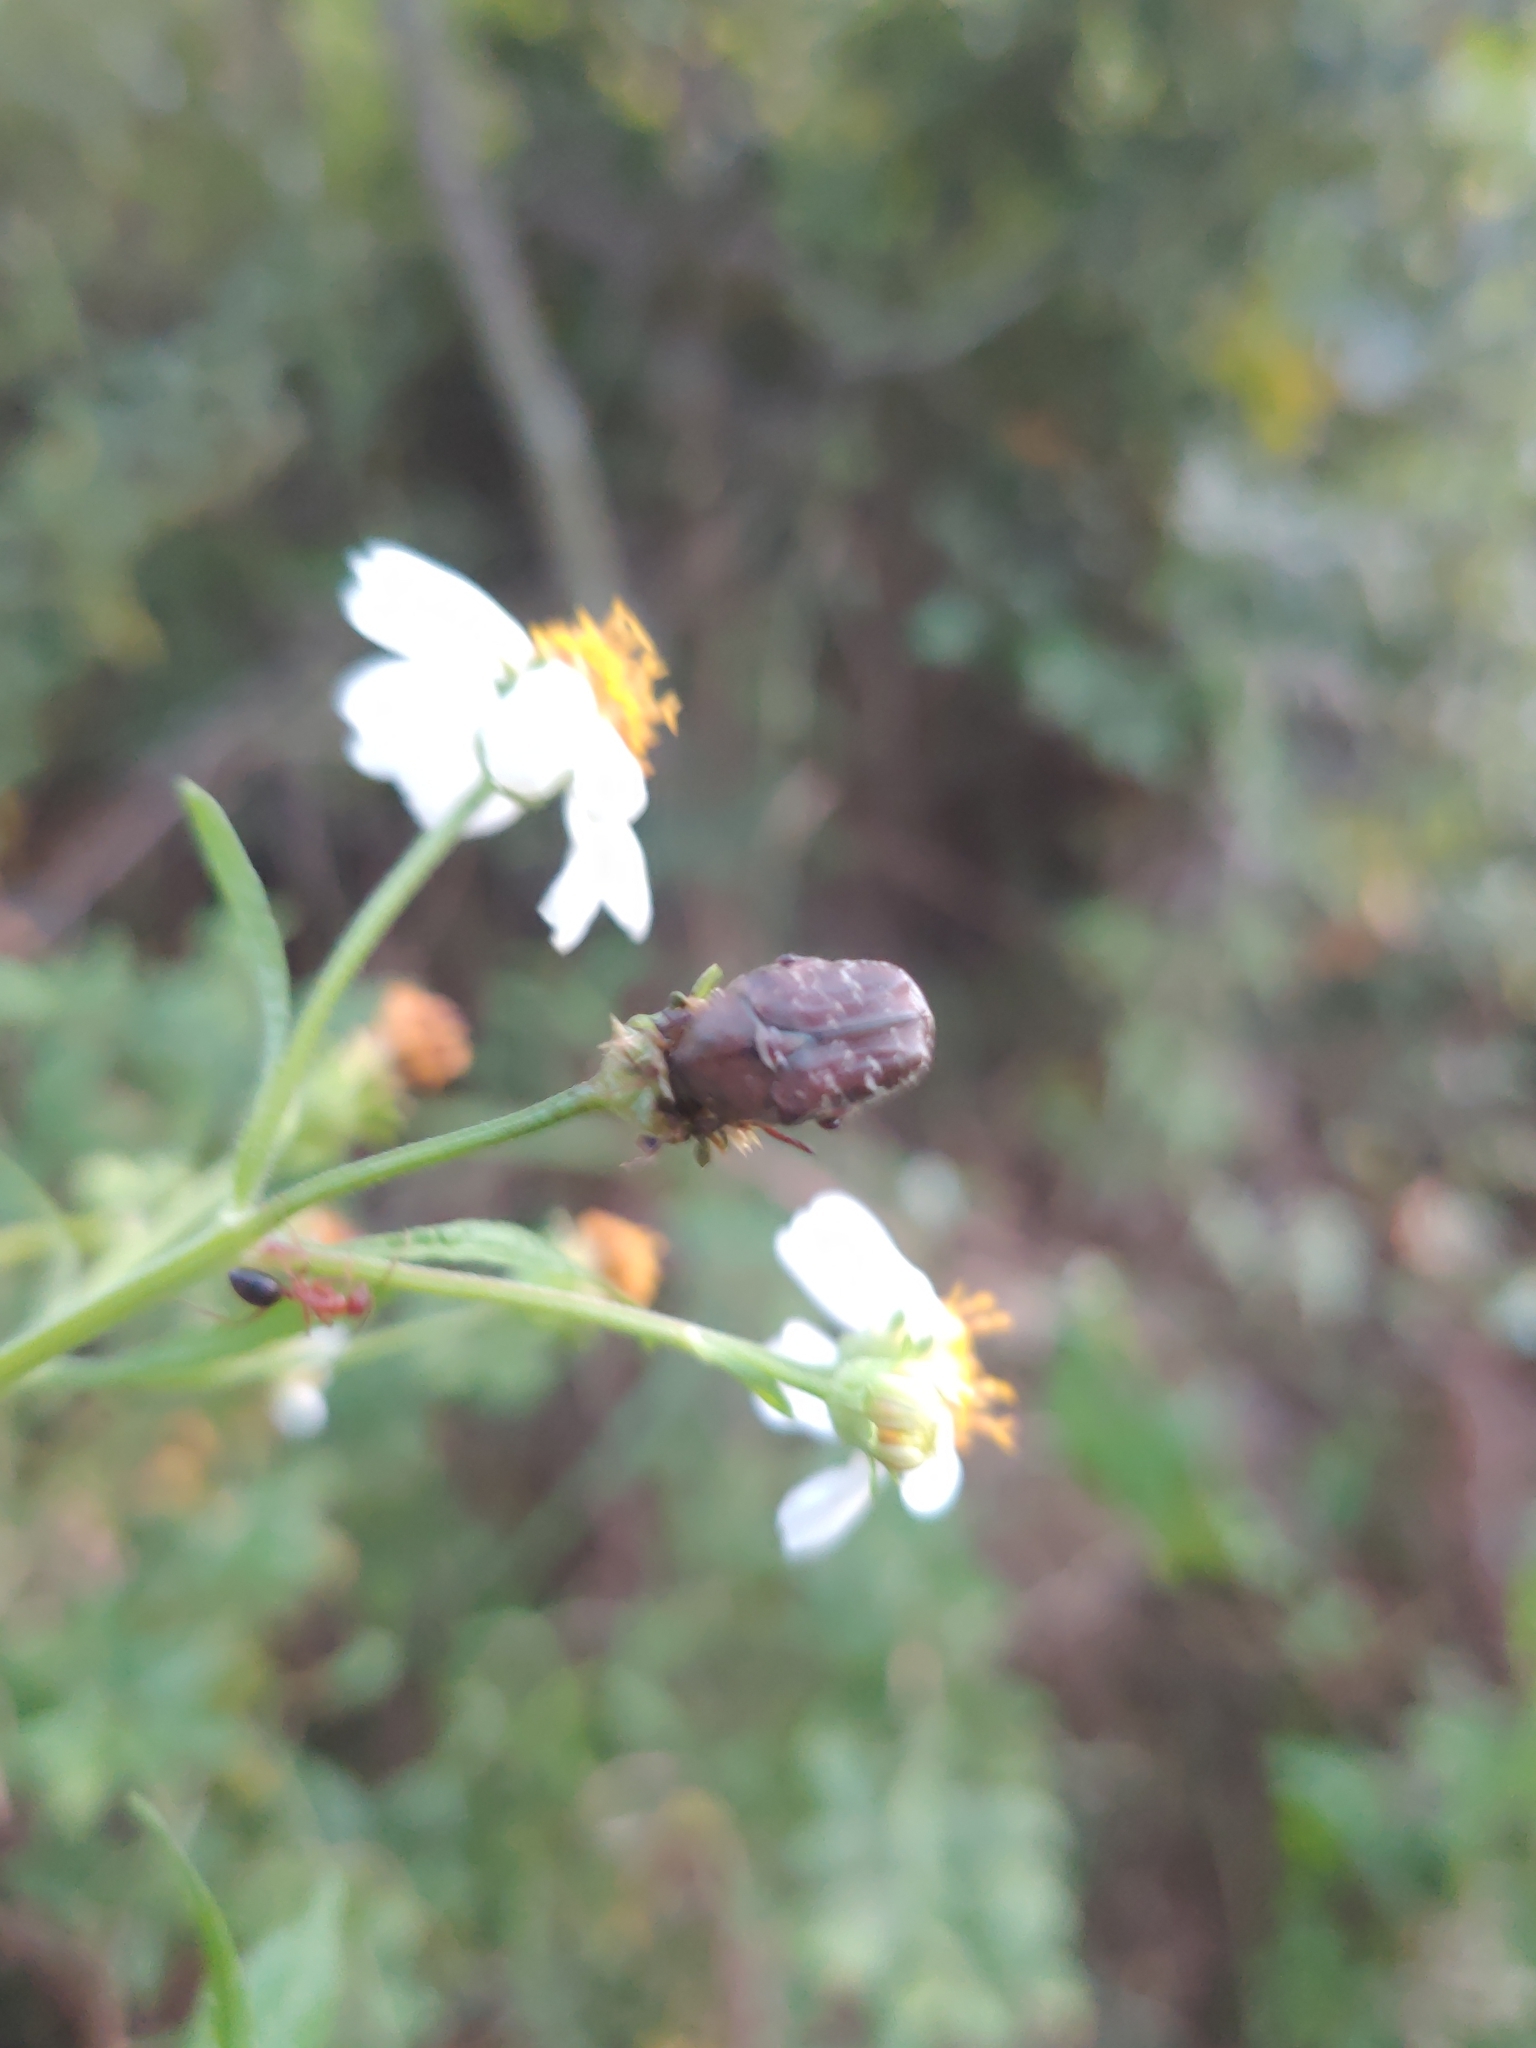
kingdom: Animalia
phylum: Arthropoda
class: Insecta
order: Coleoptera
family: Scarabaeidae
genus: Euphoria
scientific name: Euphoria sepulcralis
